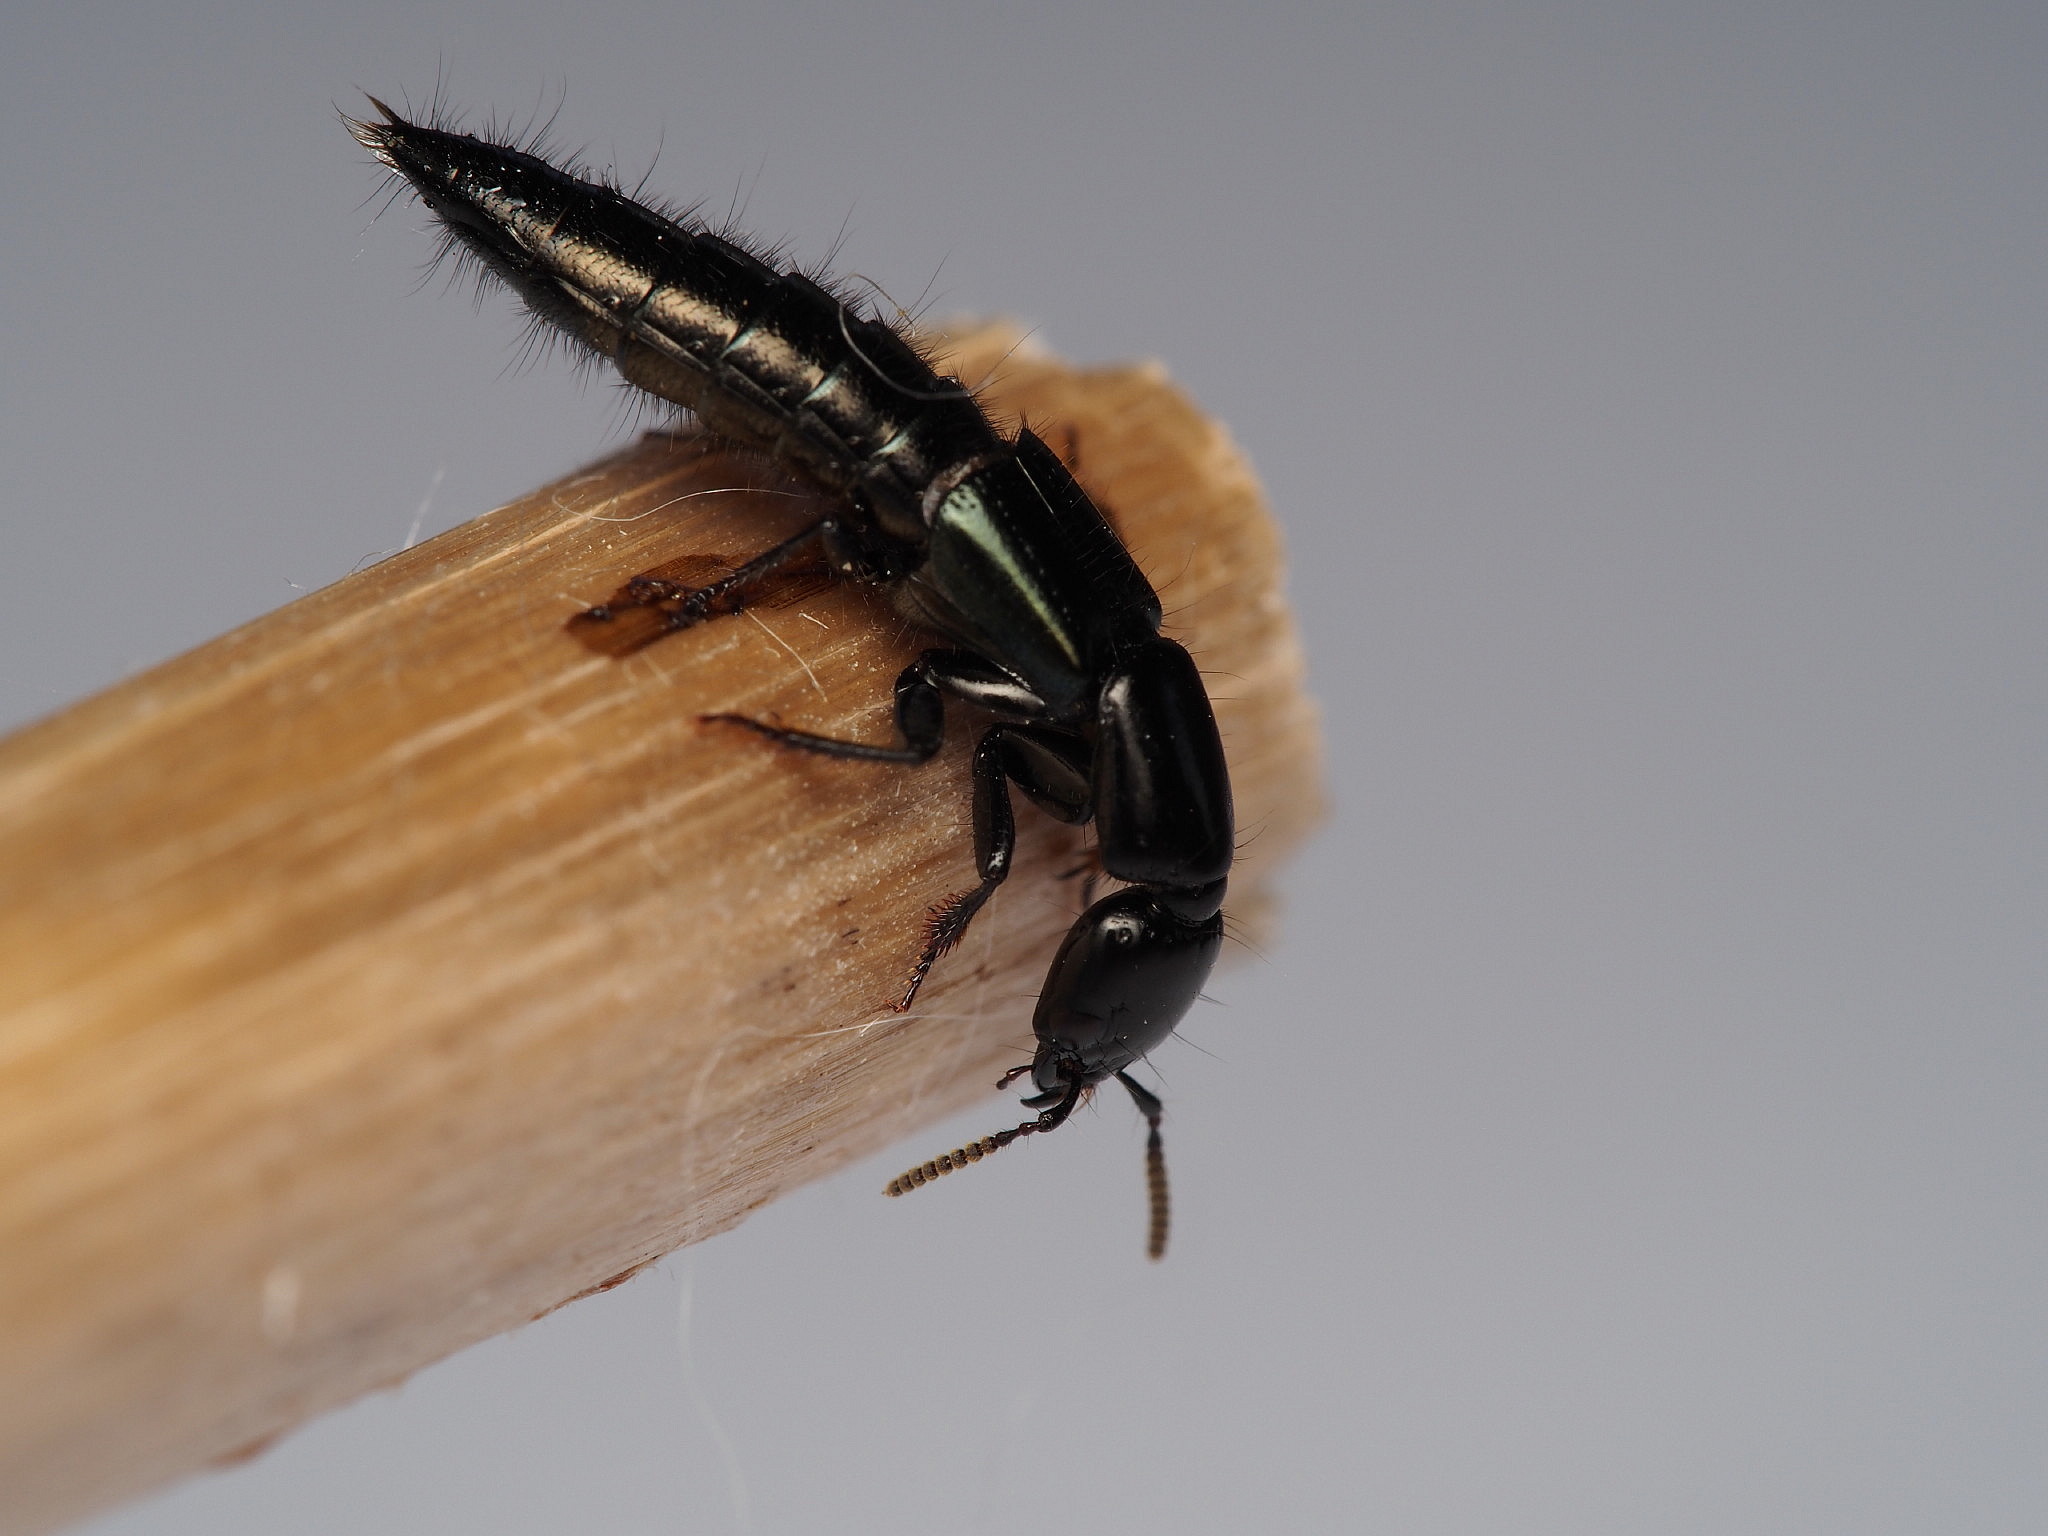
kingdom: Animalia
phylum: Arthropoda
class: Insecta
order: Coleoptera
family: Staphylinidae
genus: Thyreocephalus
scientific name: Thyreocephalus orthodoxus
